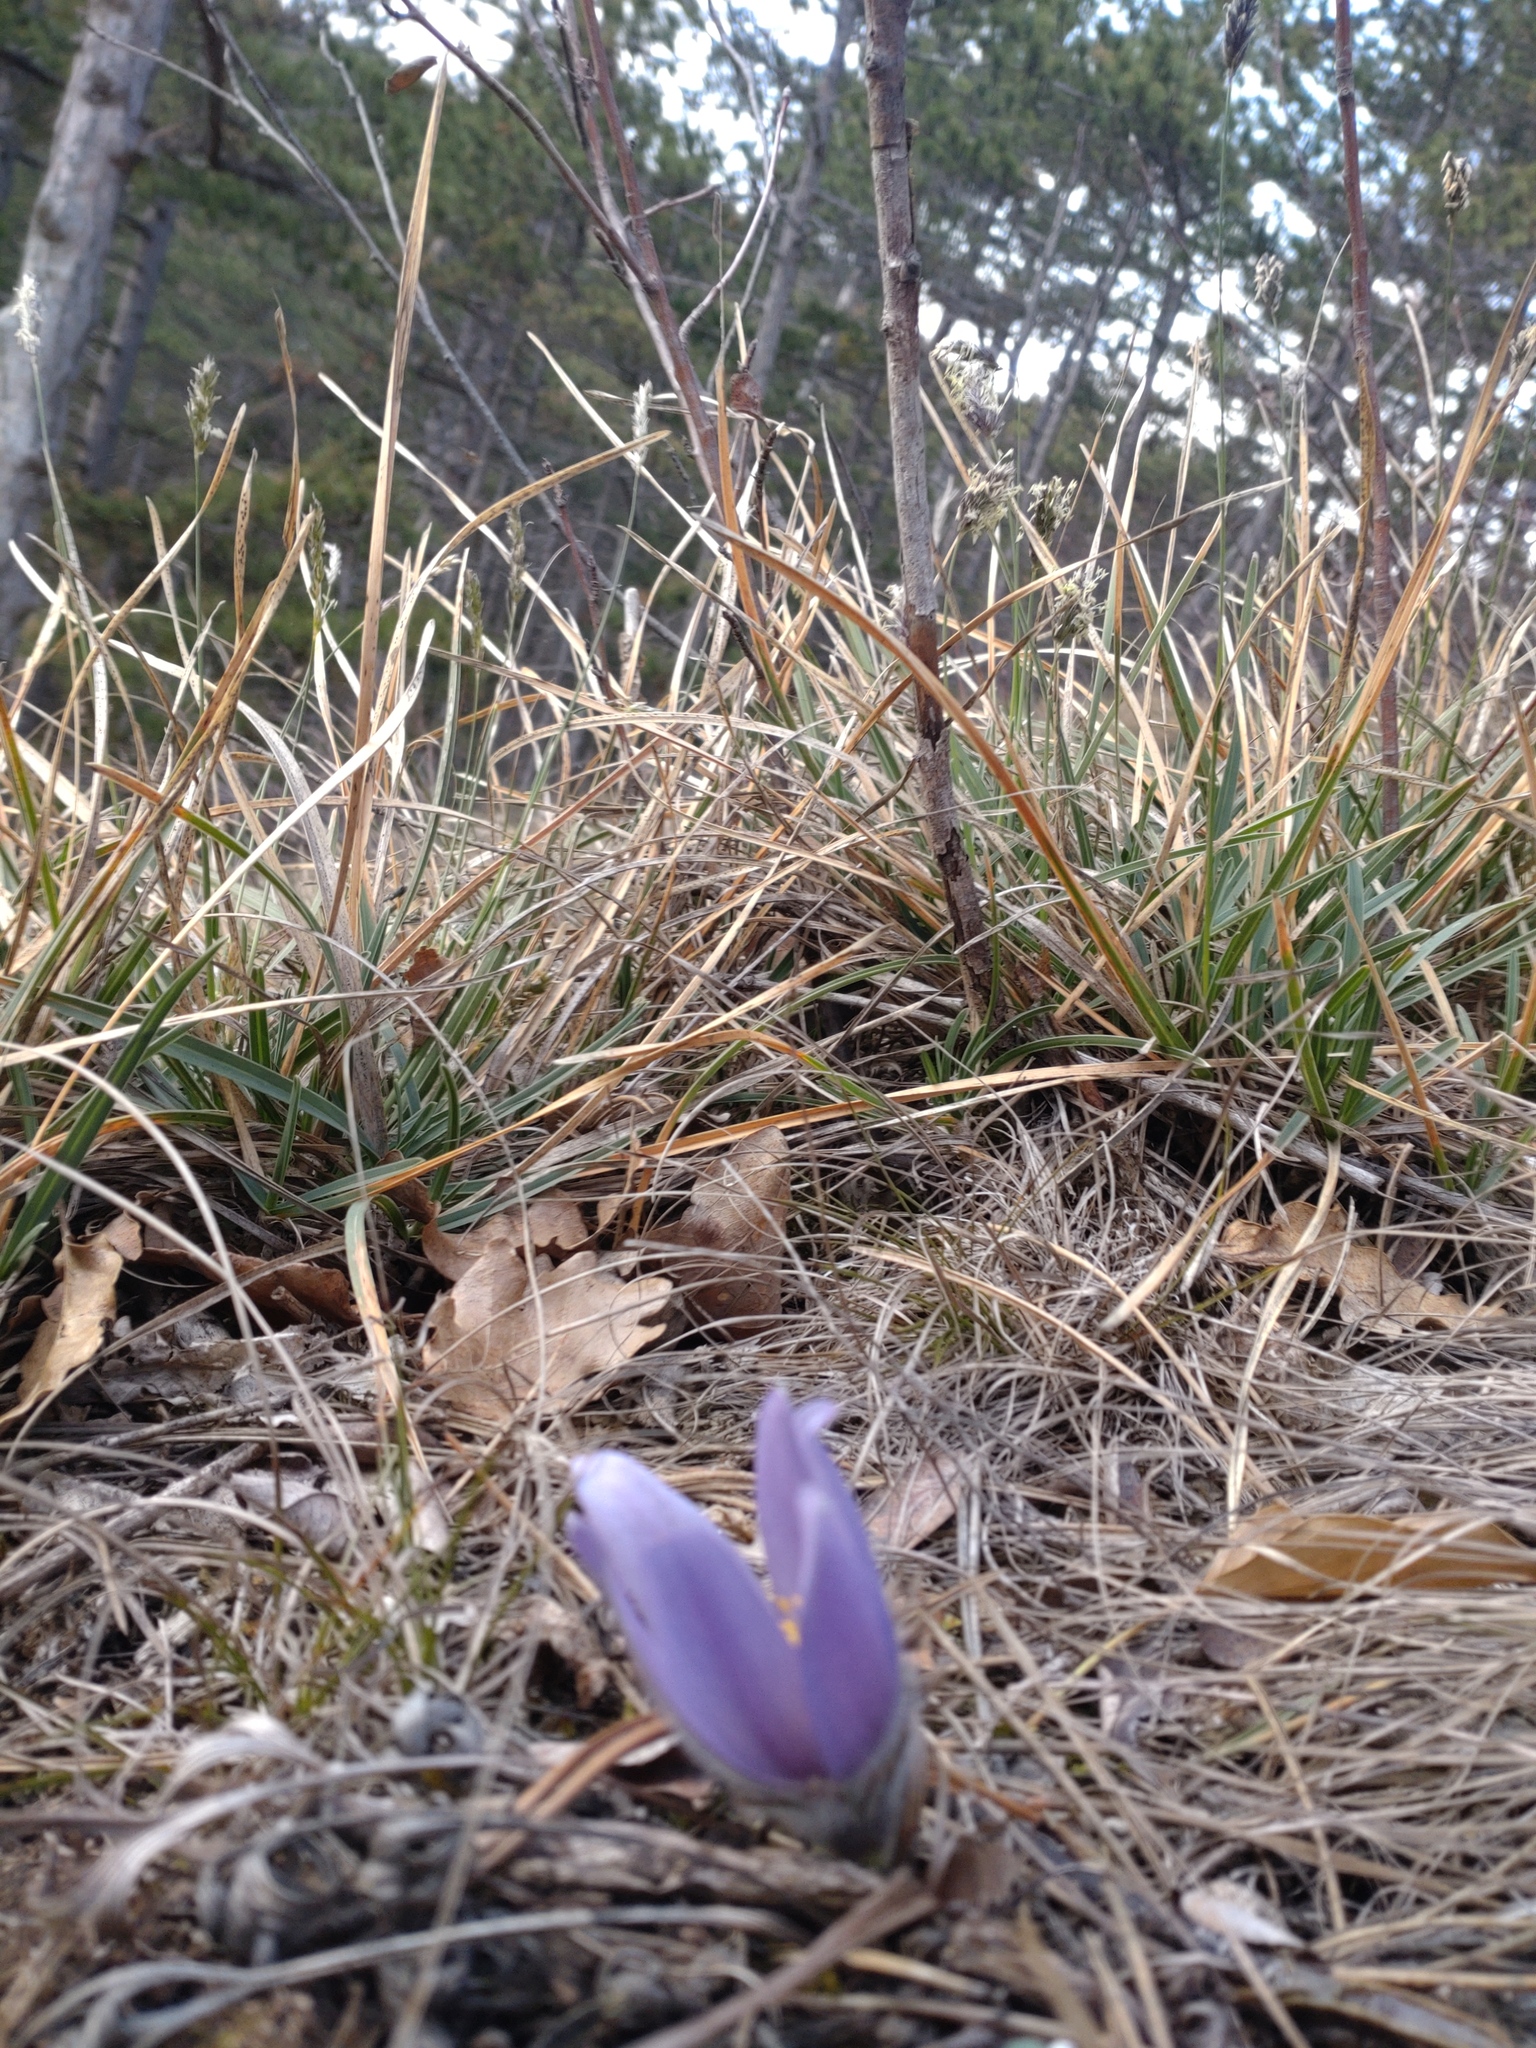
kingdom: Plantae
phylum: Tracheophyta
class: Magnoliopsida
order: Ranunculales
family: Ranunculaceae
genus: Pulsatilla
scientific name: Pulsatilla grandis
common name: Greater pasque flower
